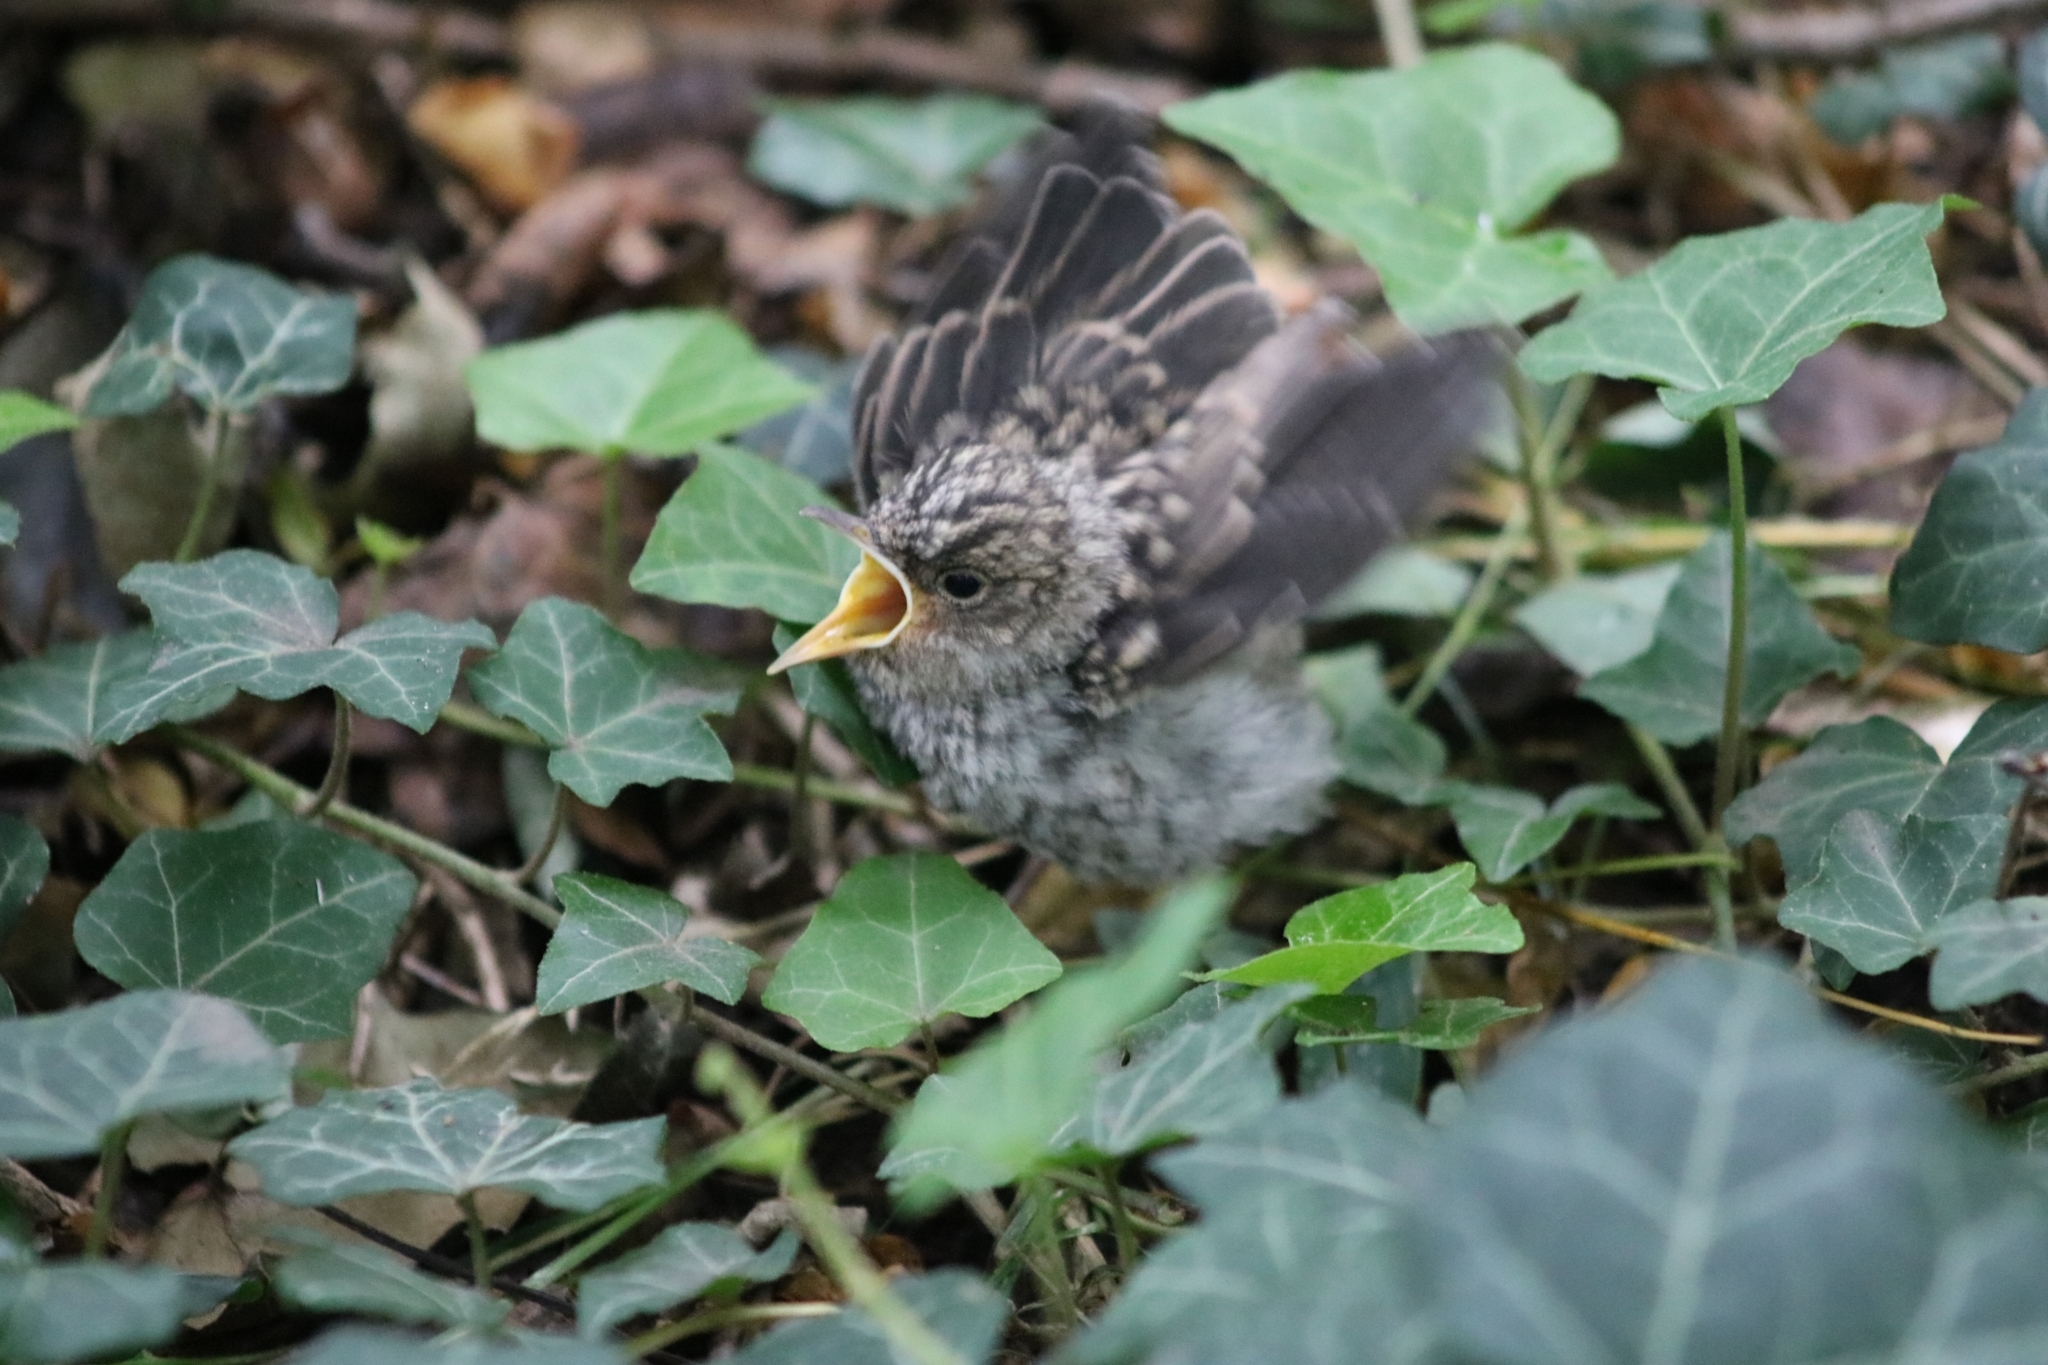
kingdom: Animalia
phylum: Chordata
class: Aves
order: Passeriformes
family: Muscicapidae
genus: Muscicapa
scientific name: Muscicapa striata
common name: Spotted flycatcher
